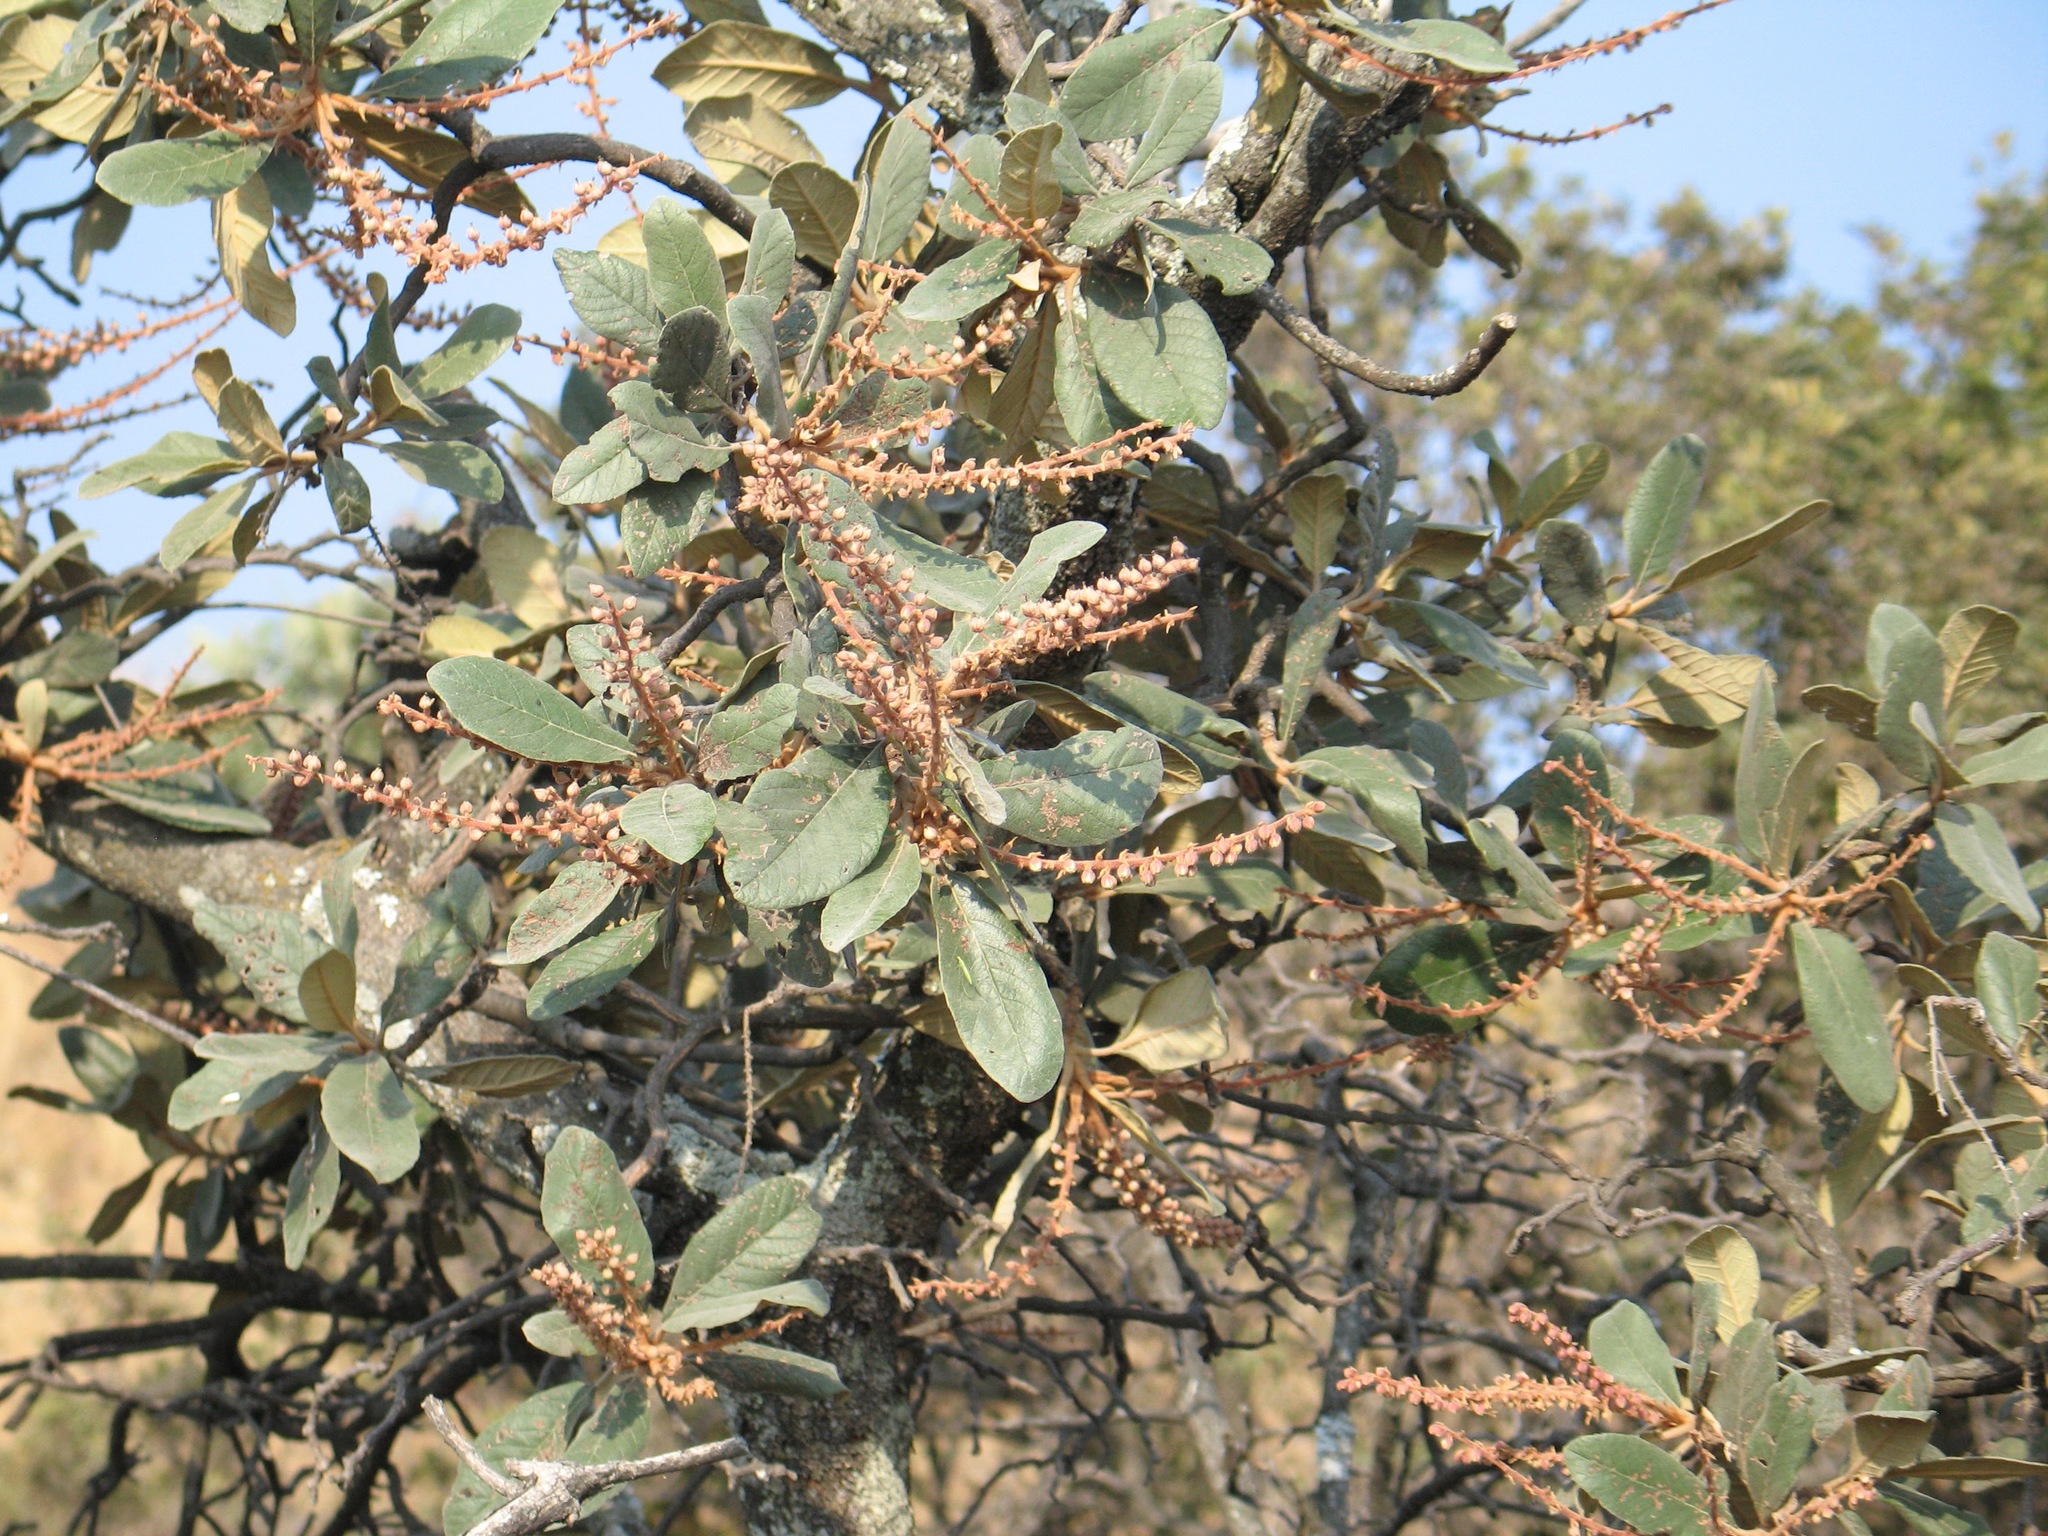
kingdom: Plantae
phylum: Tracheophyta
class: Magnoliopsida
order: Ericales
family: Clethraceae
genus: Clethra
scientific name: Clethra rosei
